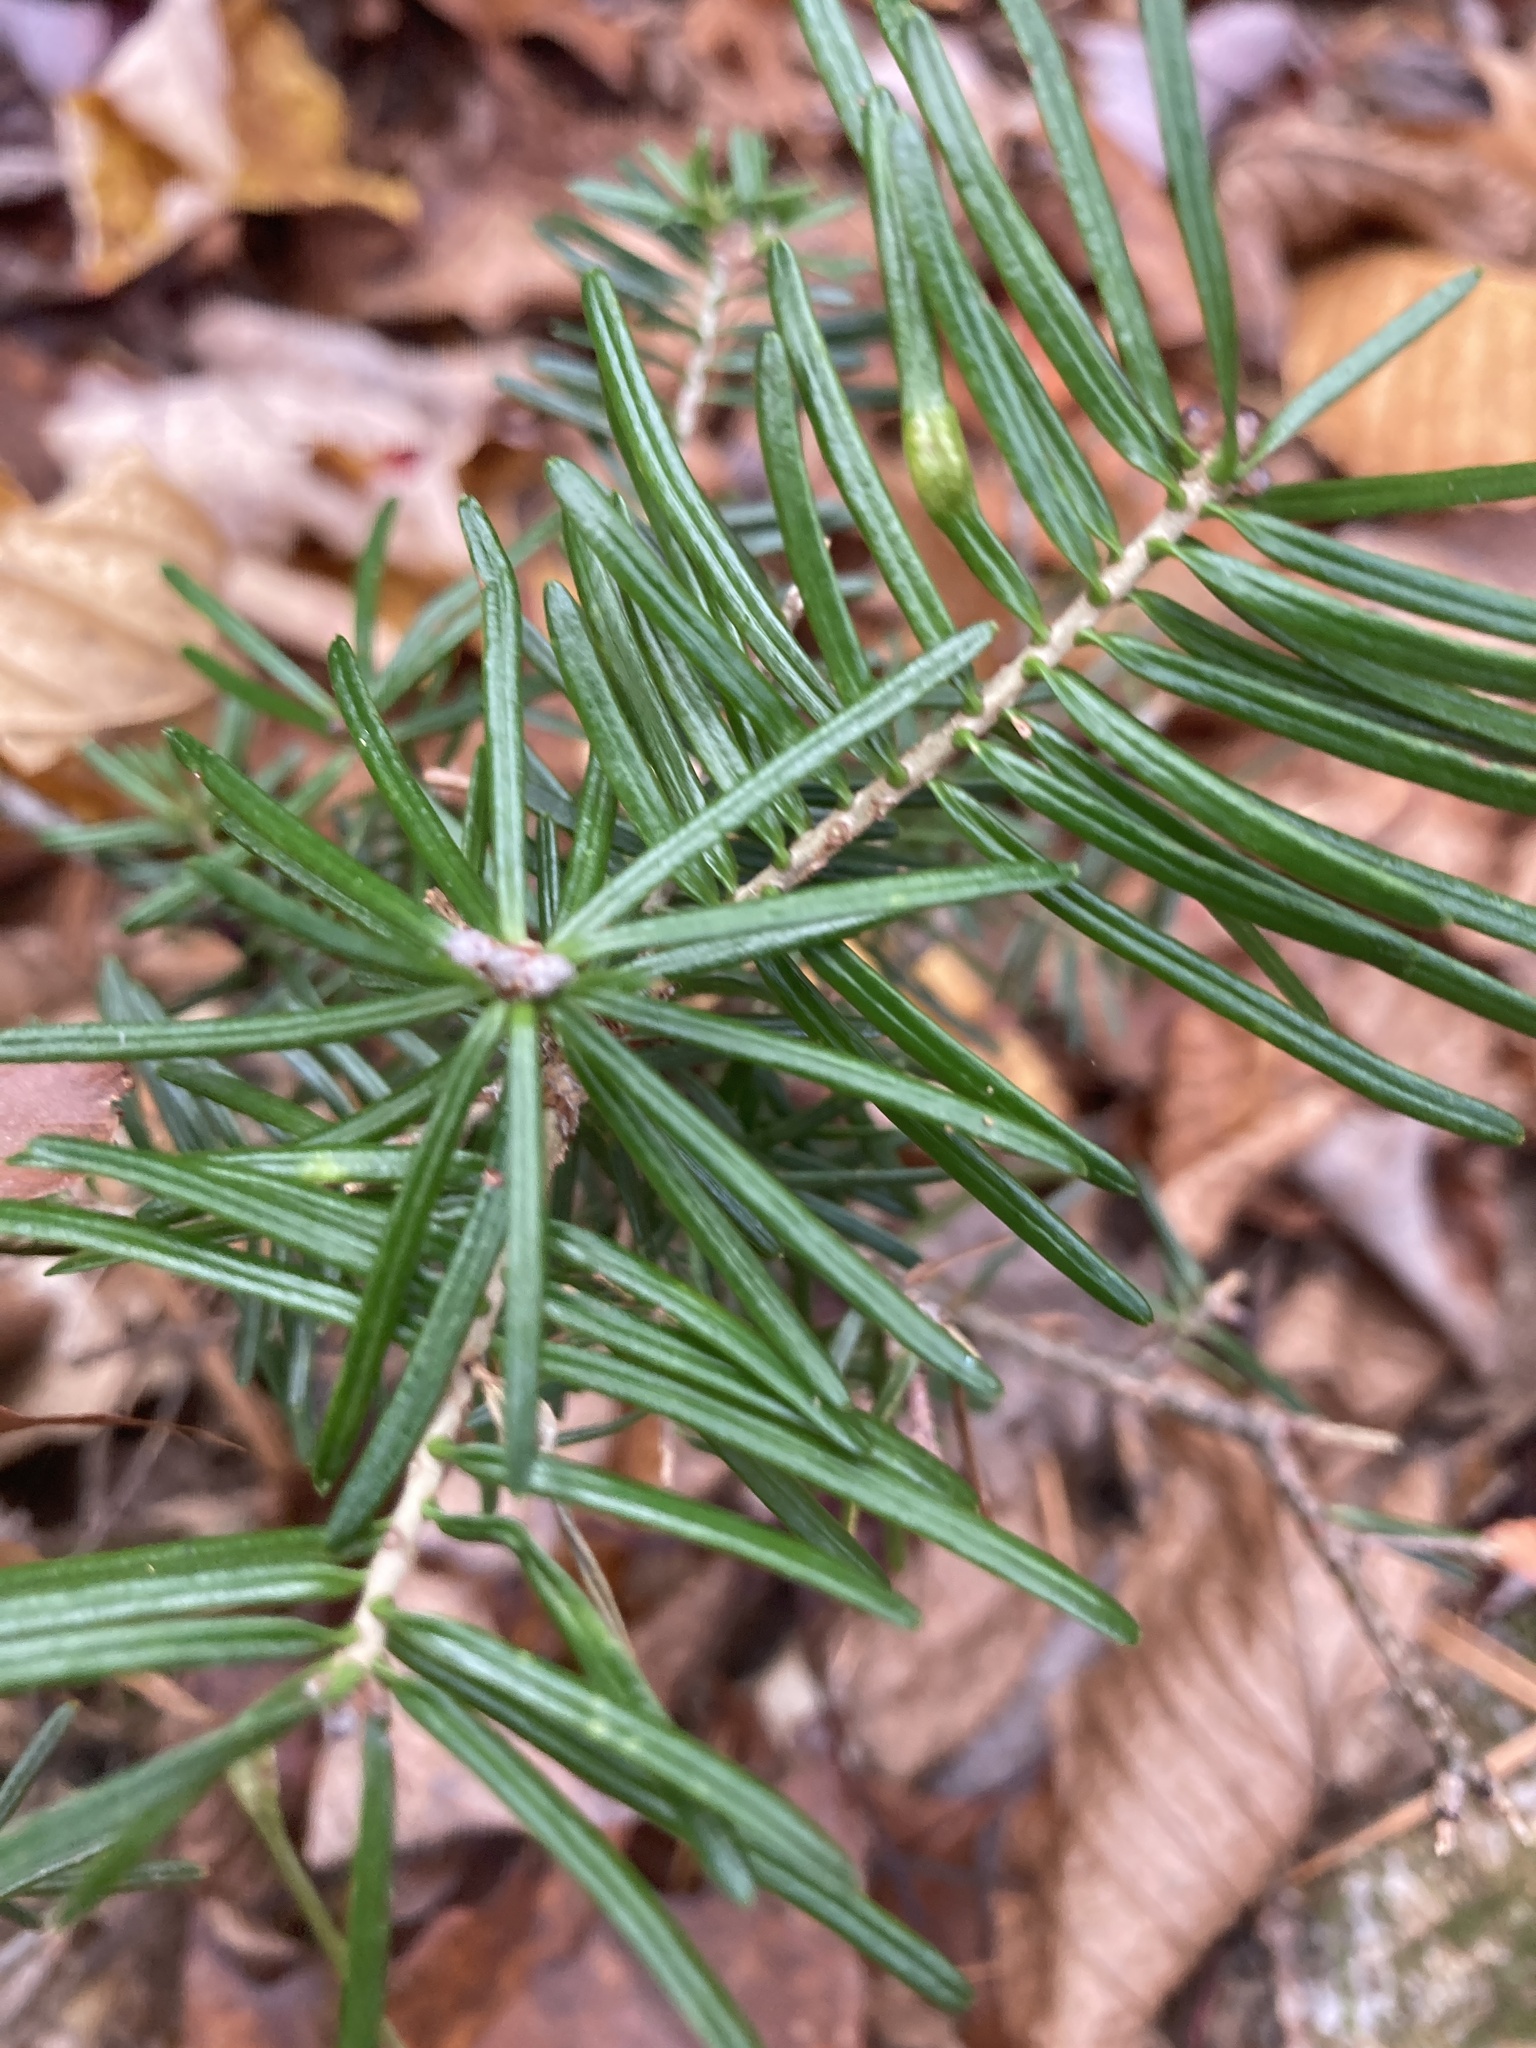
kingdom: Plantae
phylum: Tracheophyta
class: Pinopsida
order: Pinales
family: Pinaceae
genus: Abies
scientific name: Abies balsamea
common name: Balsam fir
